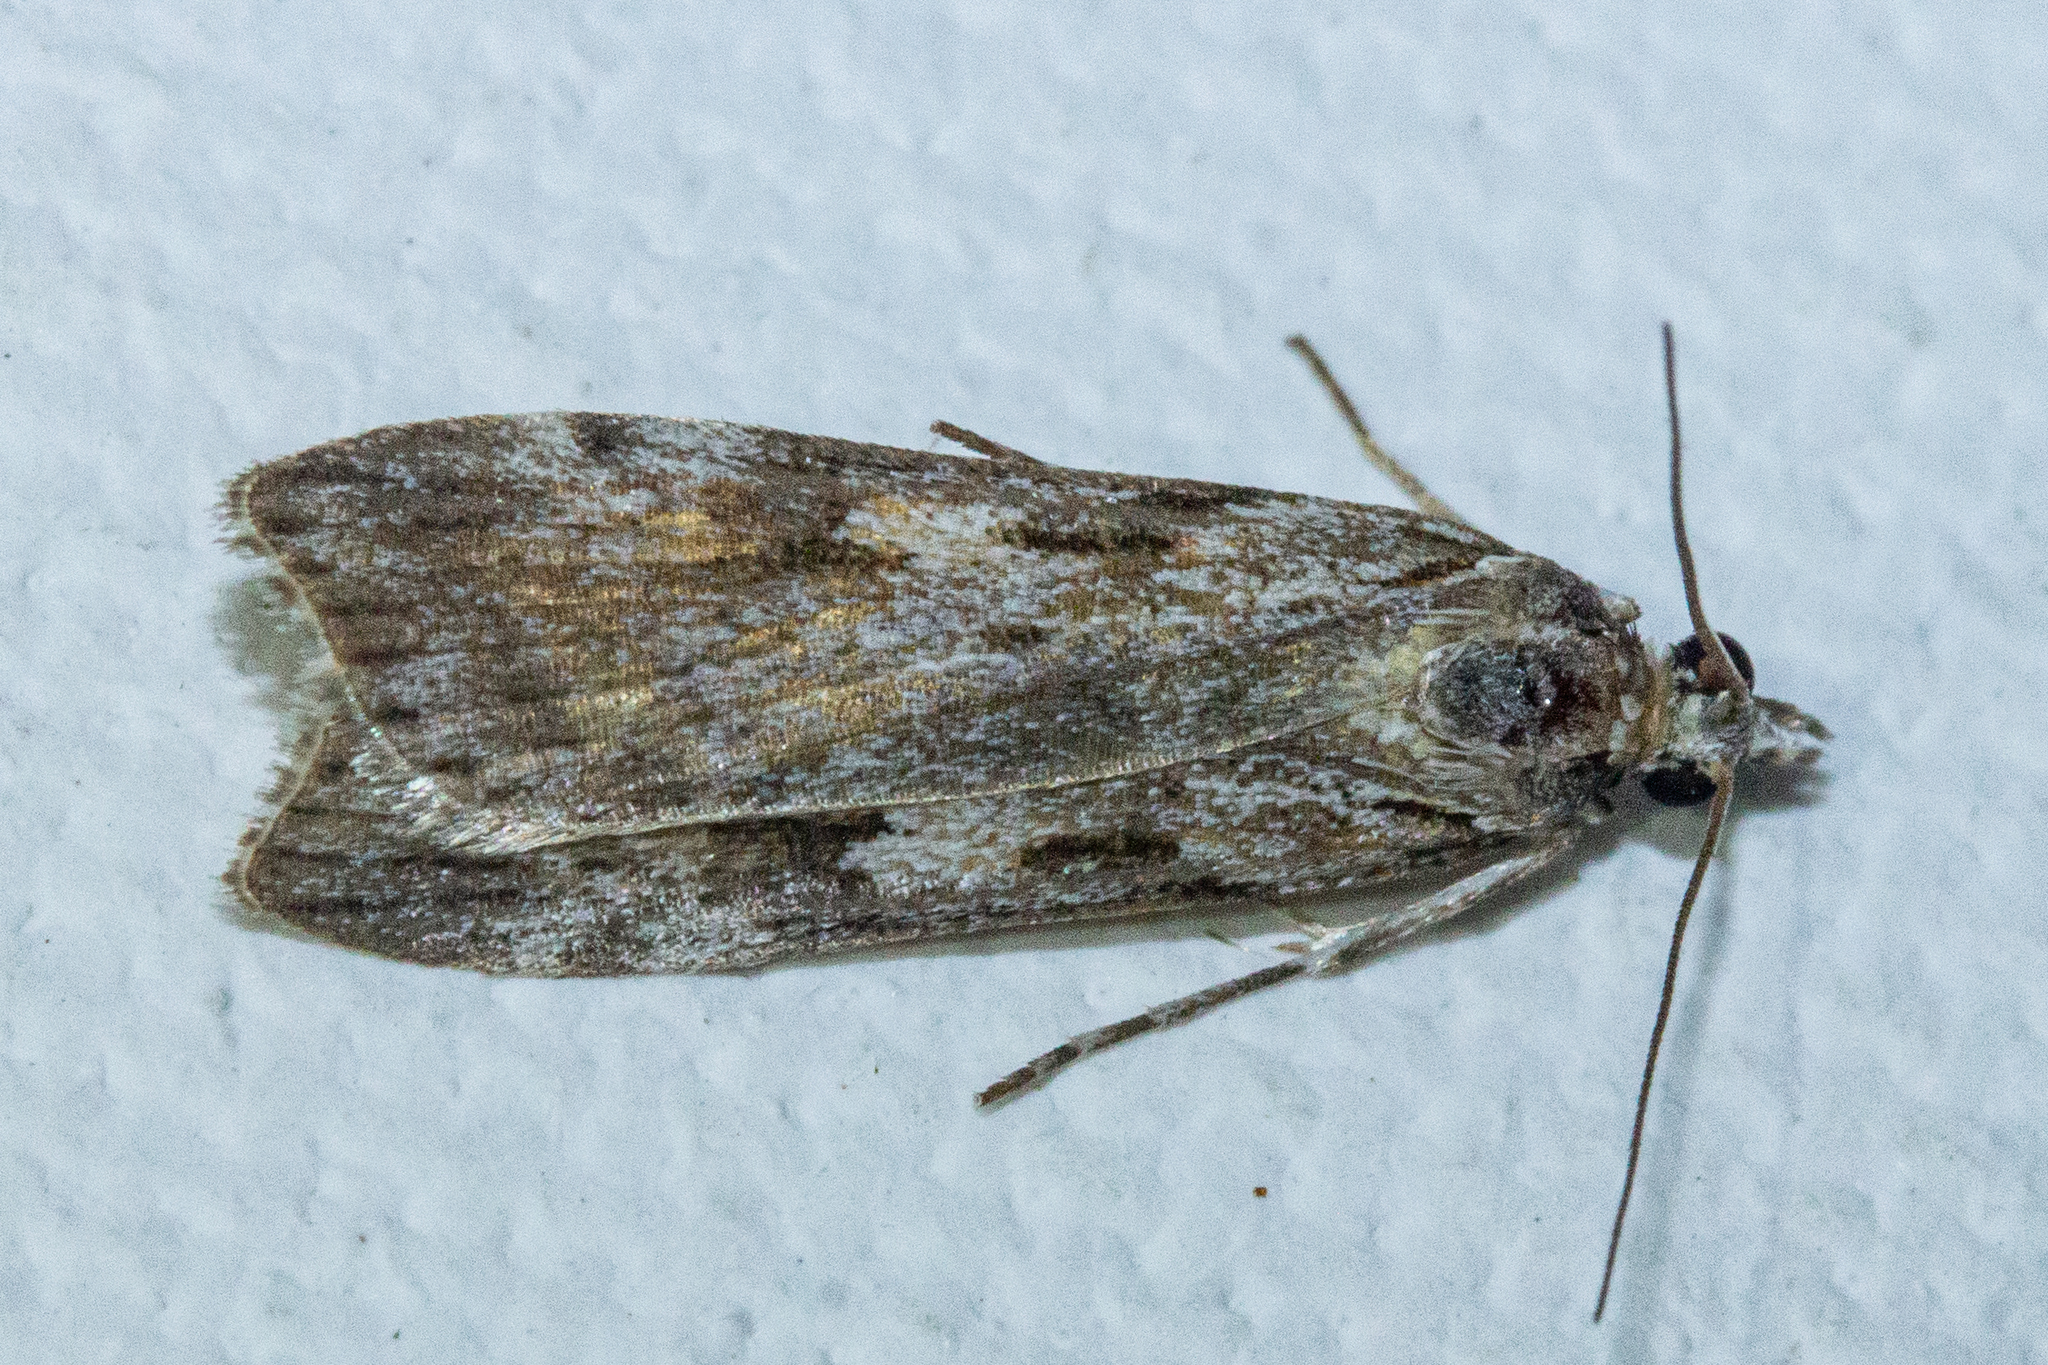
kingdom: Animalia
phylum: Arthropoda
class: Insecta
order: Lepidoptera
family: Crambidae
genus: Scoparia
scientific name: Scoparia halopis
